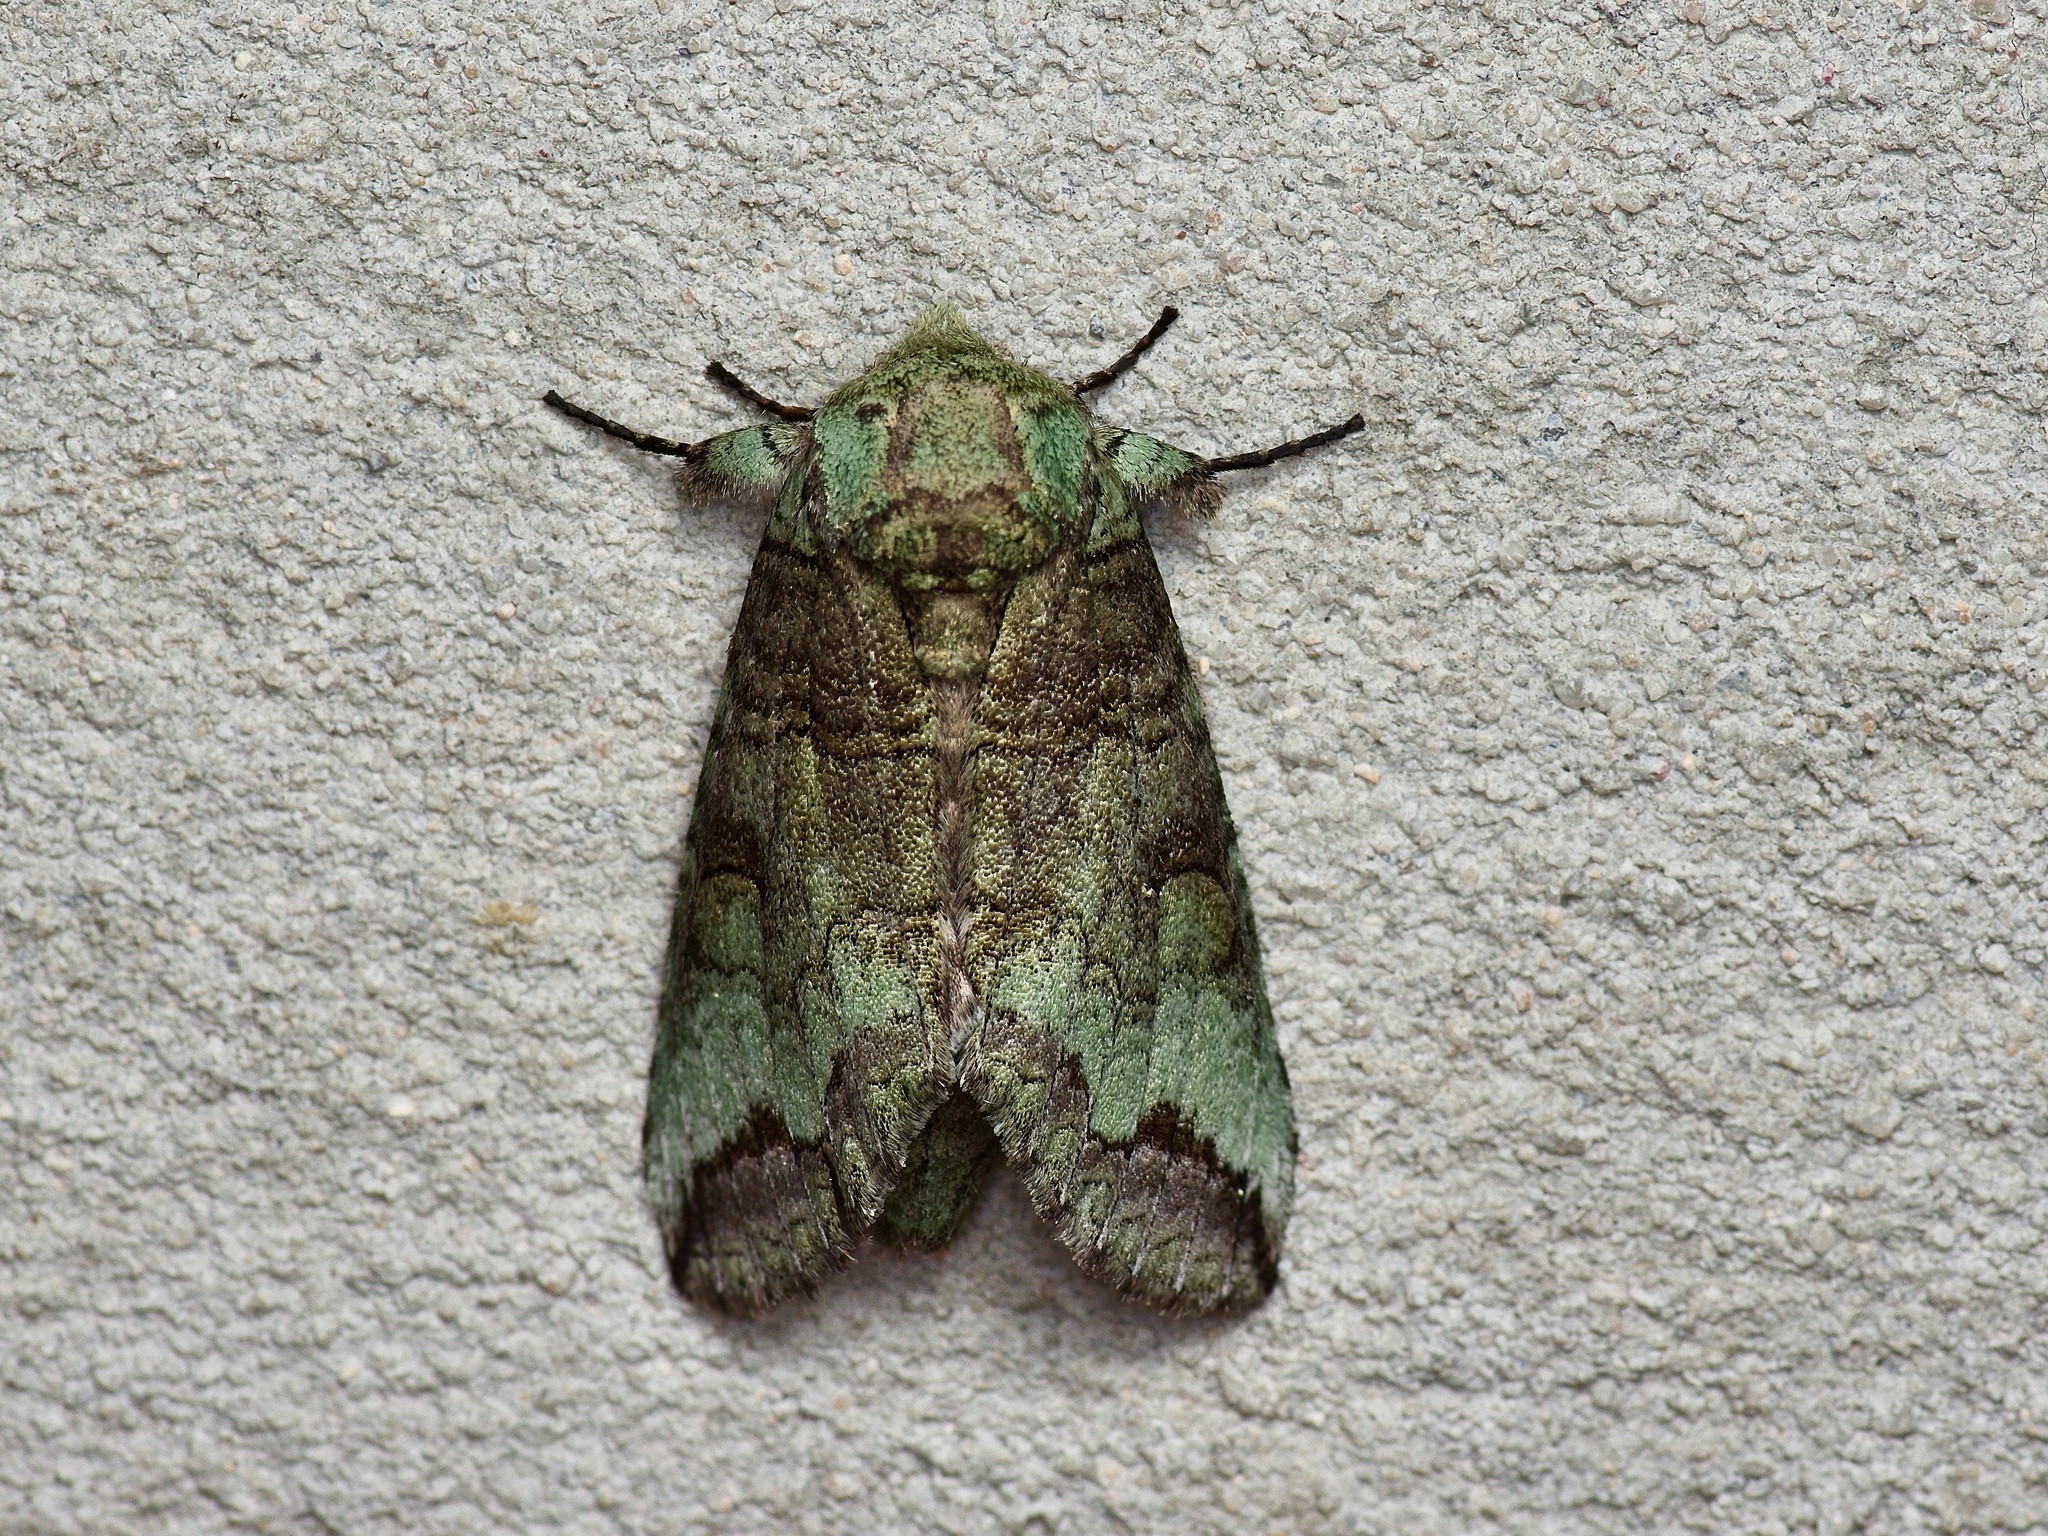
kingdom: Animalia
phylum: Arthropoda
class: Insecta
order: Lepidoptera
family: Notodontidae
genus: Heterocampa
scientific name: Heterocampa astartoides
